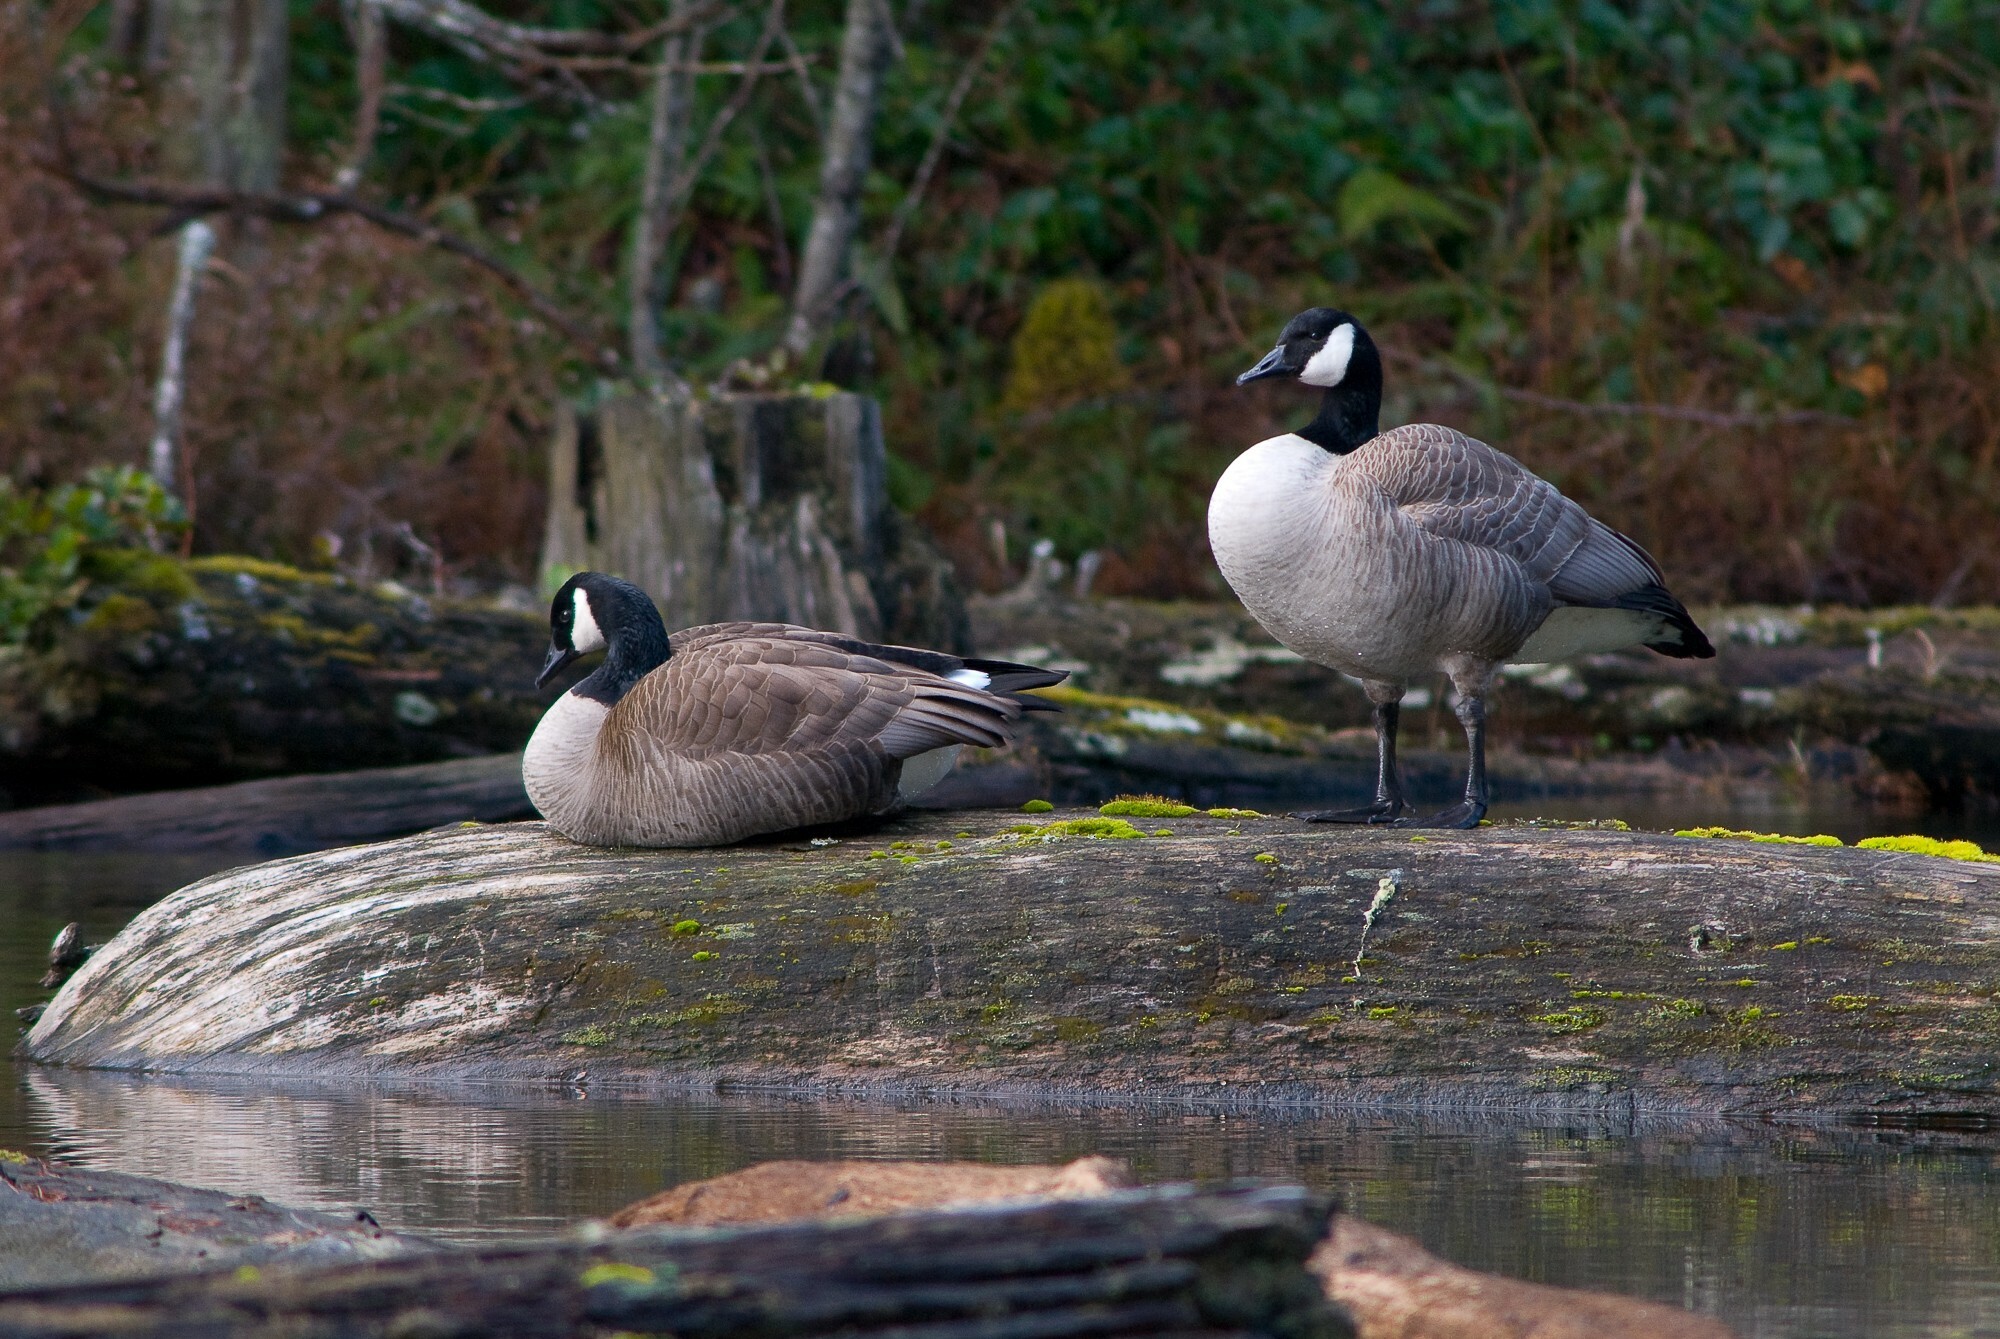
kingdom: Animalia
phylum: Chordata
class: Aves
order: Anseriformes
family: Anatidae
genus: Branta
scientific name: Branta canadensis
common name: Canada goose
